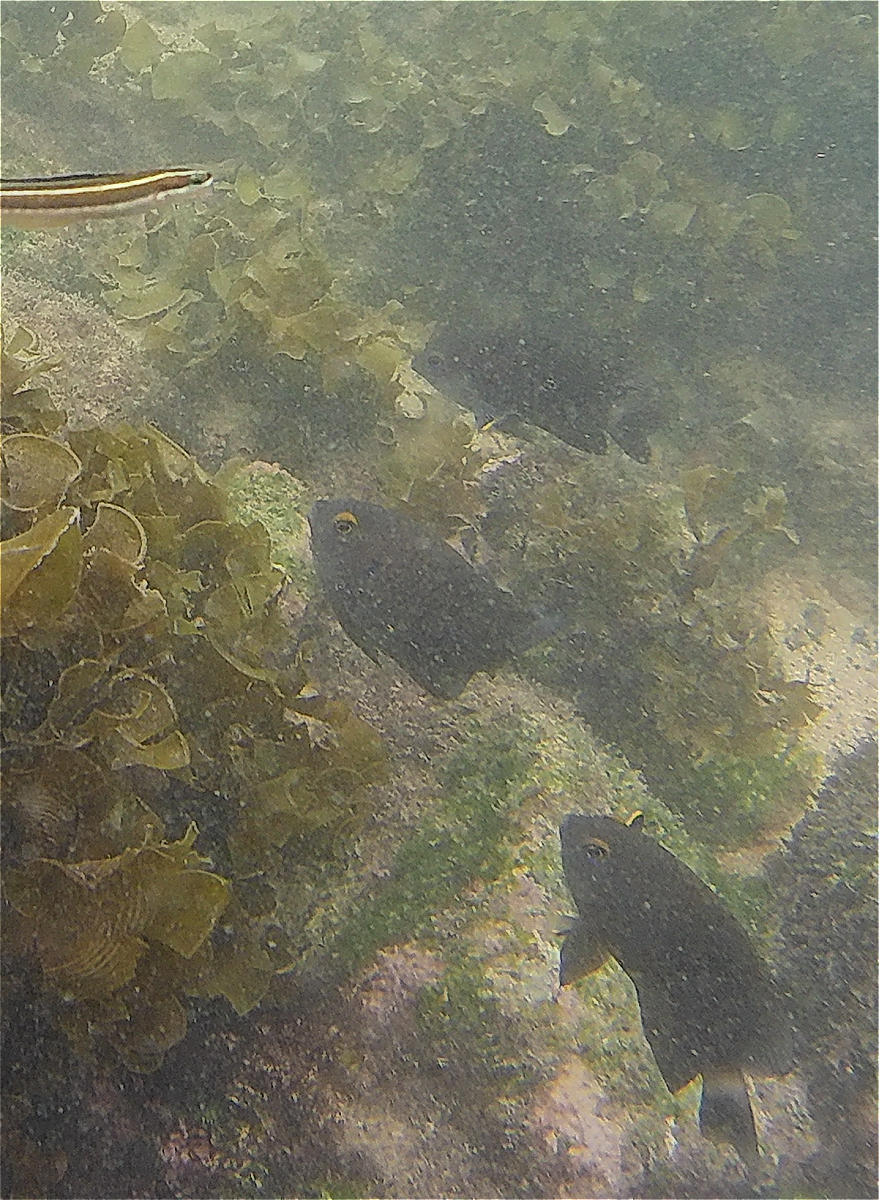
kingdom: Animalia
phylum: Chordata
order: Perciformes
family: Pomacentridae
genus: Stegastes
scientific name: Stegastes beebei
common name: Galapagos ringtail damselfish
